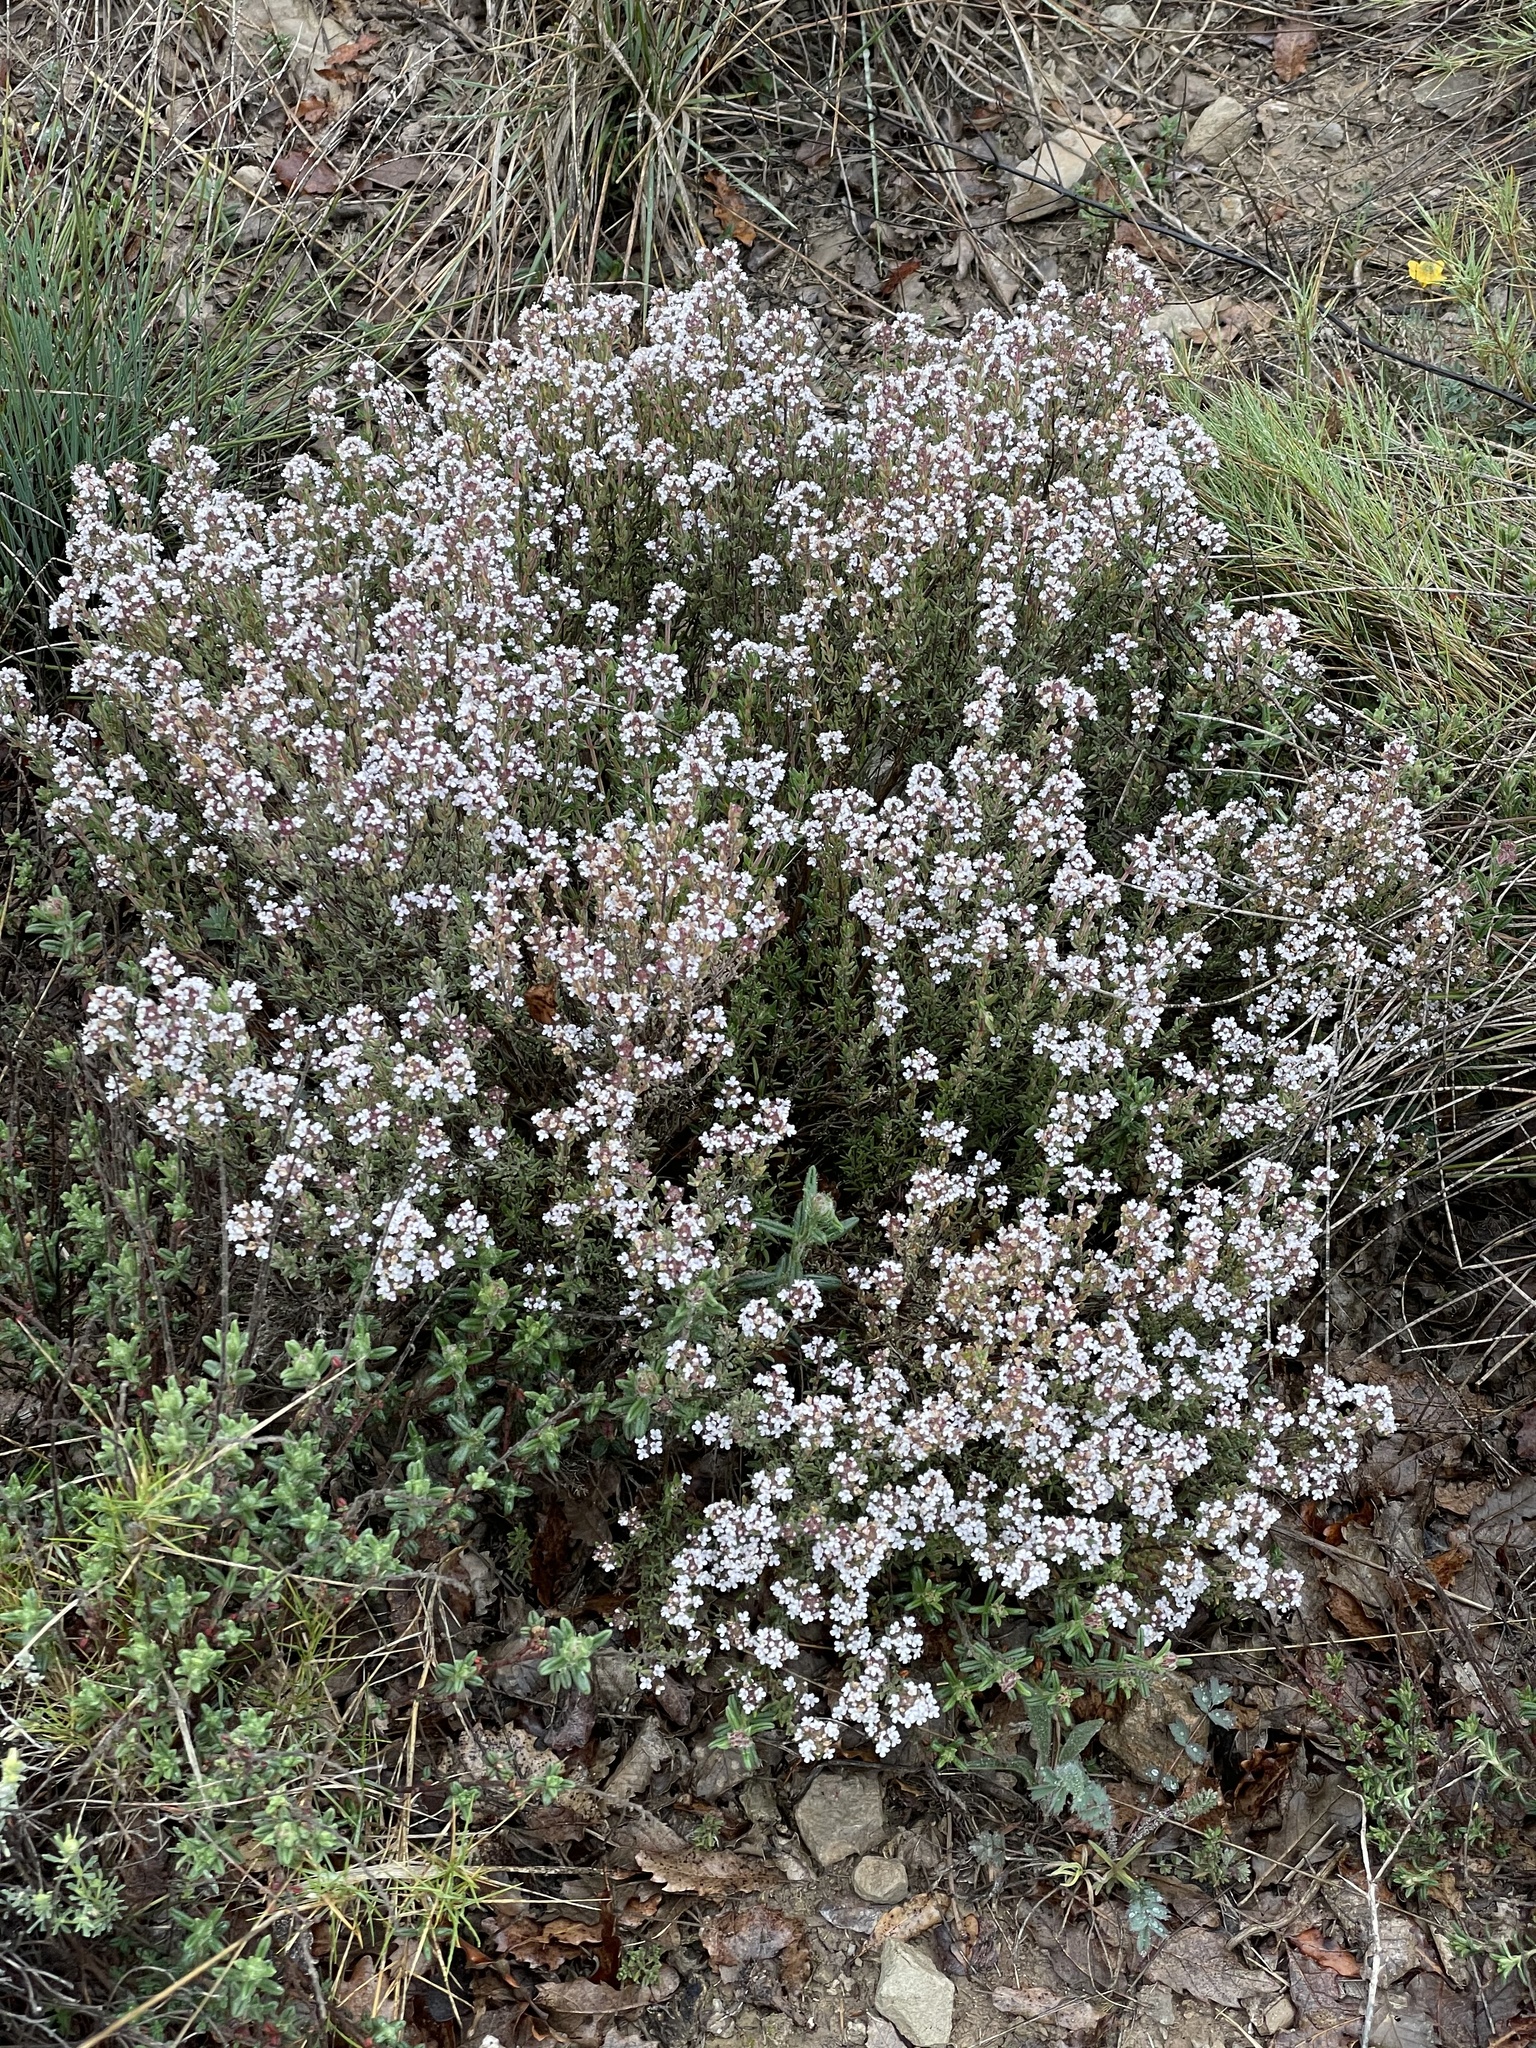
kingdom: Plantae
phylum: Tracheophyta
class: Magnoliopsida
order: Lamiales
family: Lamiaceae
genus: Thymus
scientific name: Thymus vulgaris
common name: Garden thyme
